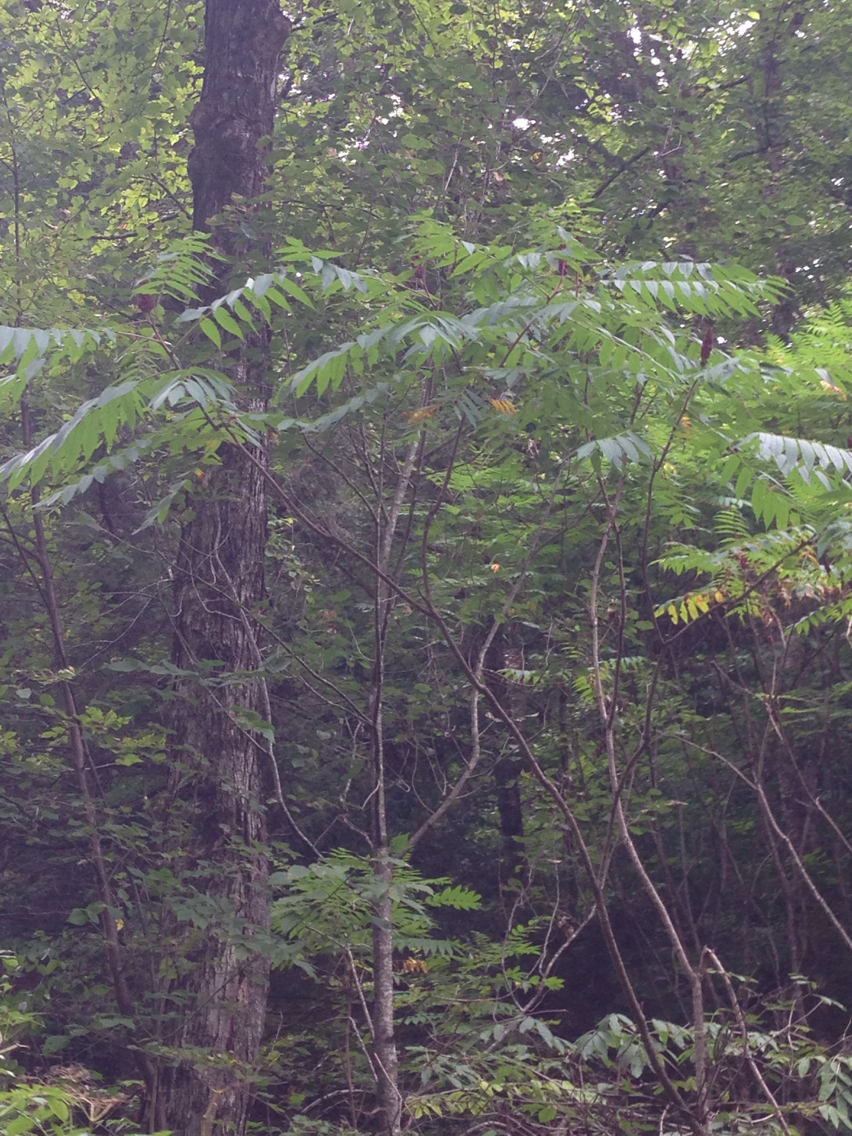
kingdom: Plantae
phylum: Tracheophyta
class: Magnoliopsida
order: Sapindales
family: Anacardiaceae
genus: Rhus
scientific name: Rhus typhina
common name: Staghorn sumac
